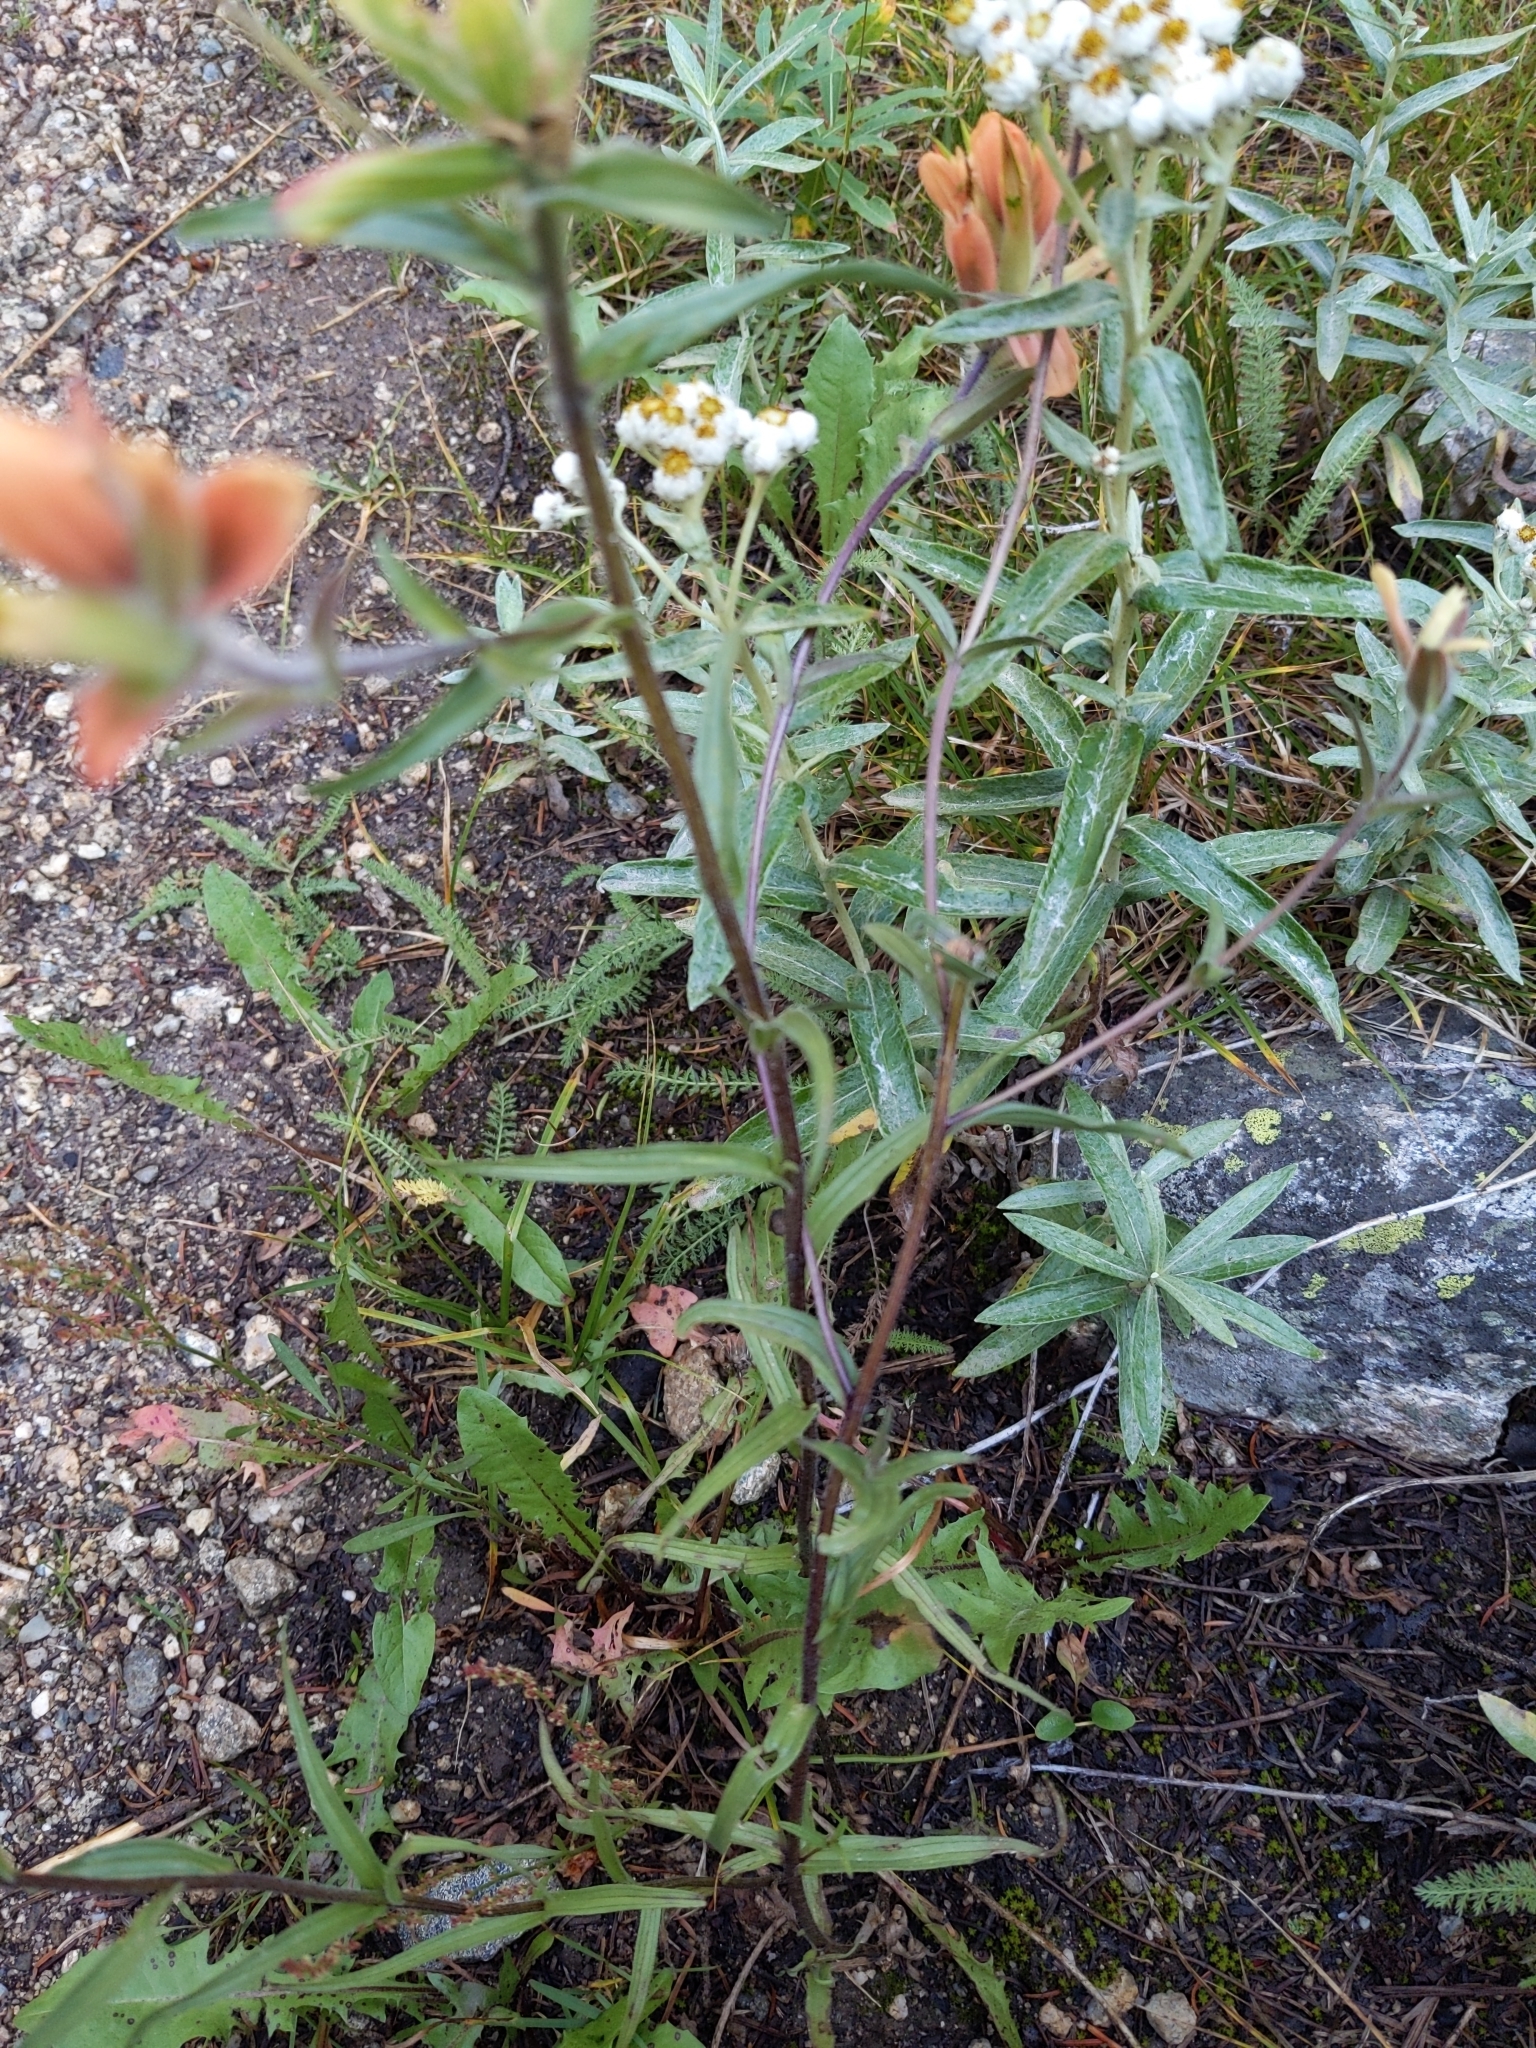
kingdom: Plantae
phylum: Tracheophyta
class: Magnoliopsida
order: Lamiales
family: Orobanchaceae
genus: Castilleja
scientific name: Castilleja miniata
